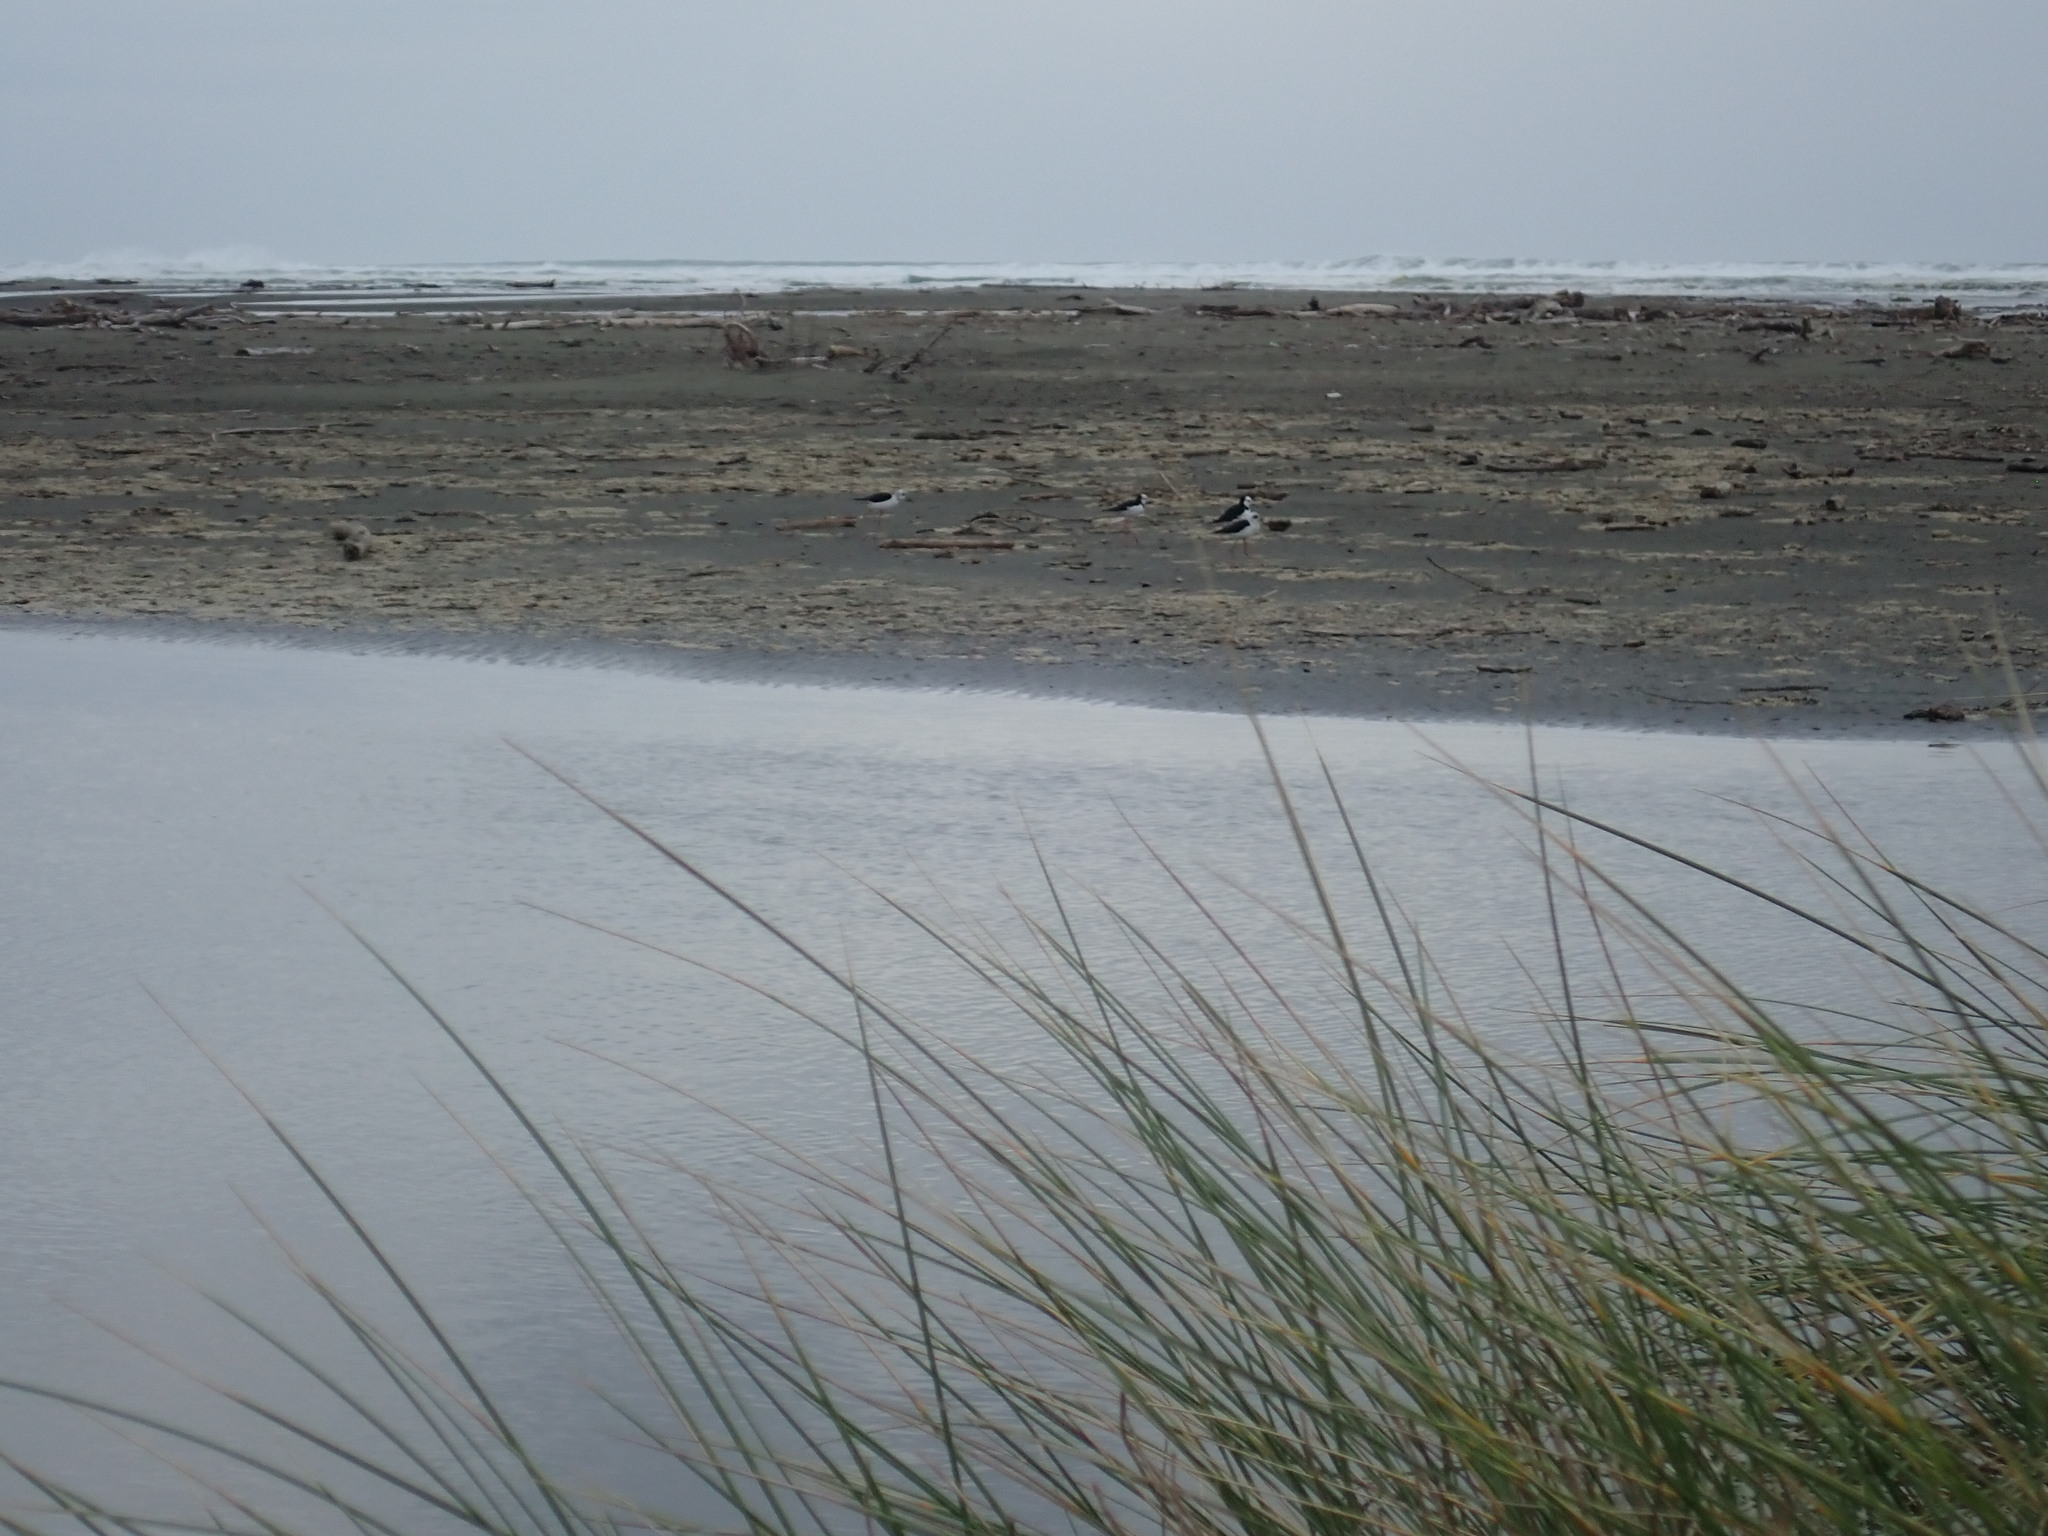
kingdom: Animalia
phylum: Chordata
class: Aves
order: Charadriiformes
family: Recurvirostridae
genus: Himantopus
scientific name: Himantopus leucocephalus
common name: White-headed stilt
